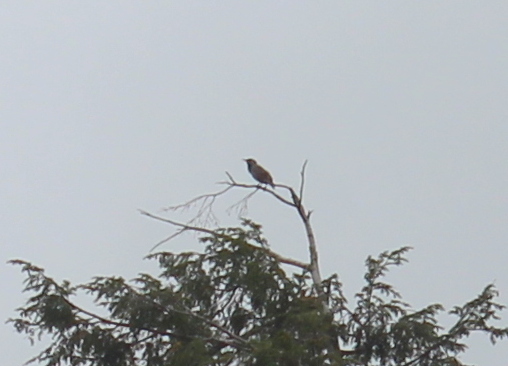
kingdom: Animalia
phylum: Chordata
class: Aves
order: Passeriformes
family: Sturnidae
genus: Sturnus
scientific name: Sturnus vulgaris
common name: Common starling
